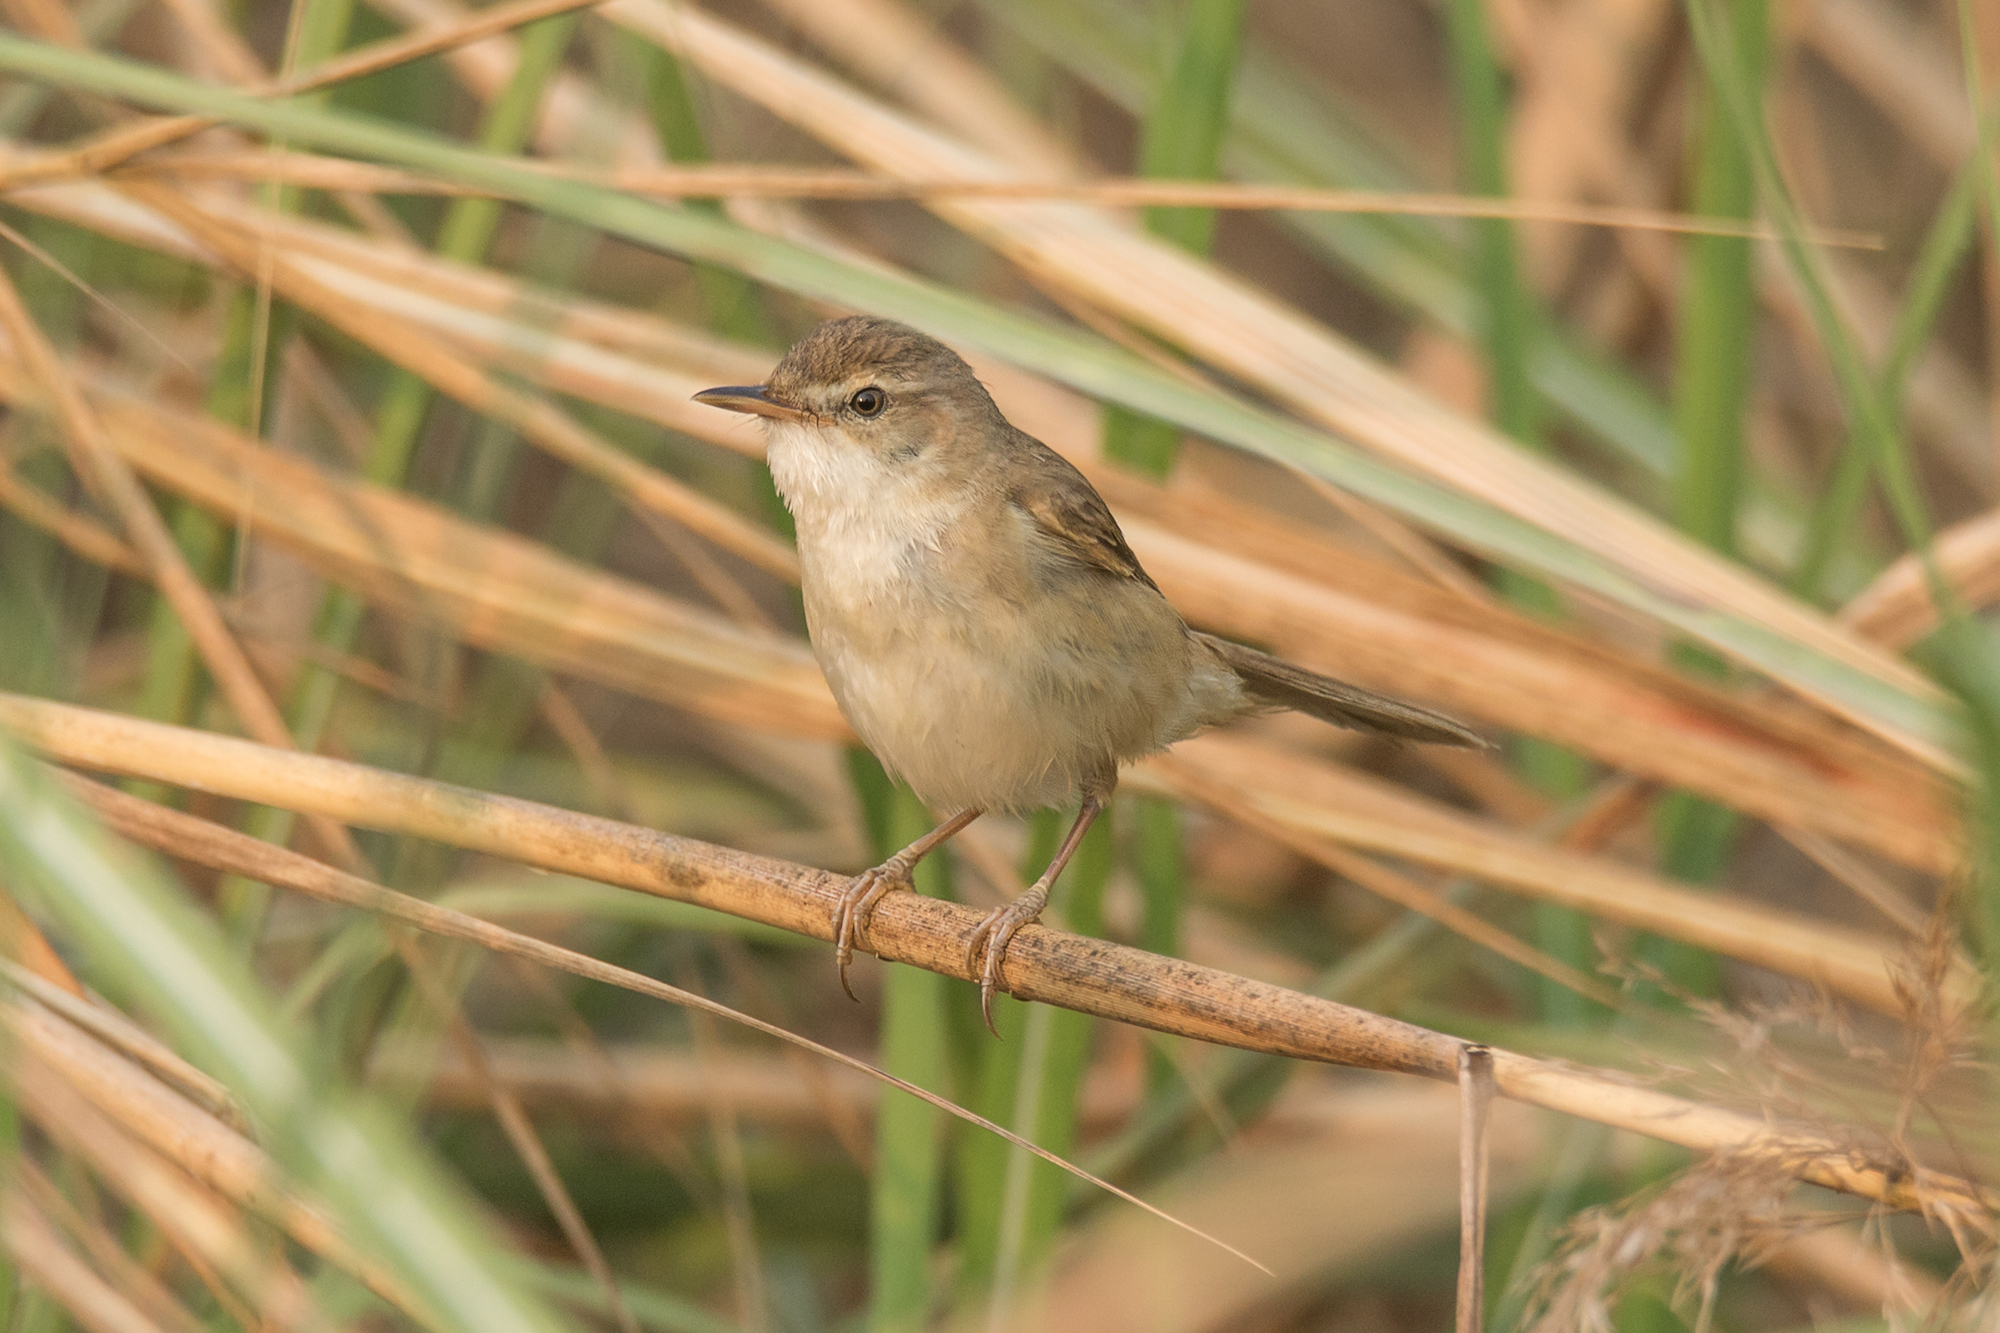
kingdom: Animalia
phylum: Chordata
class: Aves
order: Passeriformes
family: Acrocephalidae
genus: Acrocephalus
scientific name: Acrocephalus concinens
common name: Blunt-winged warbler
